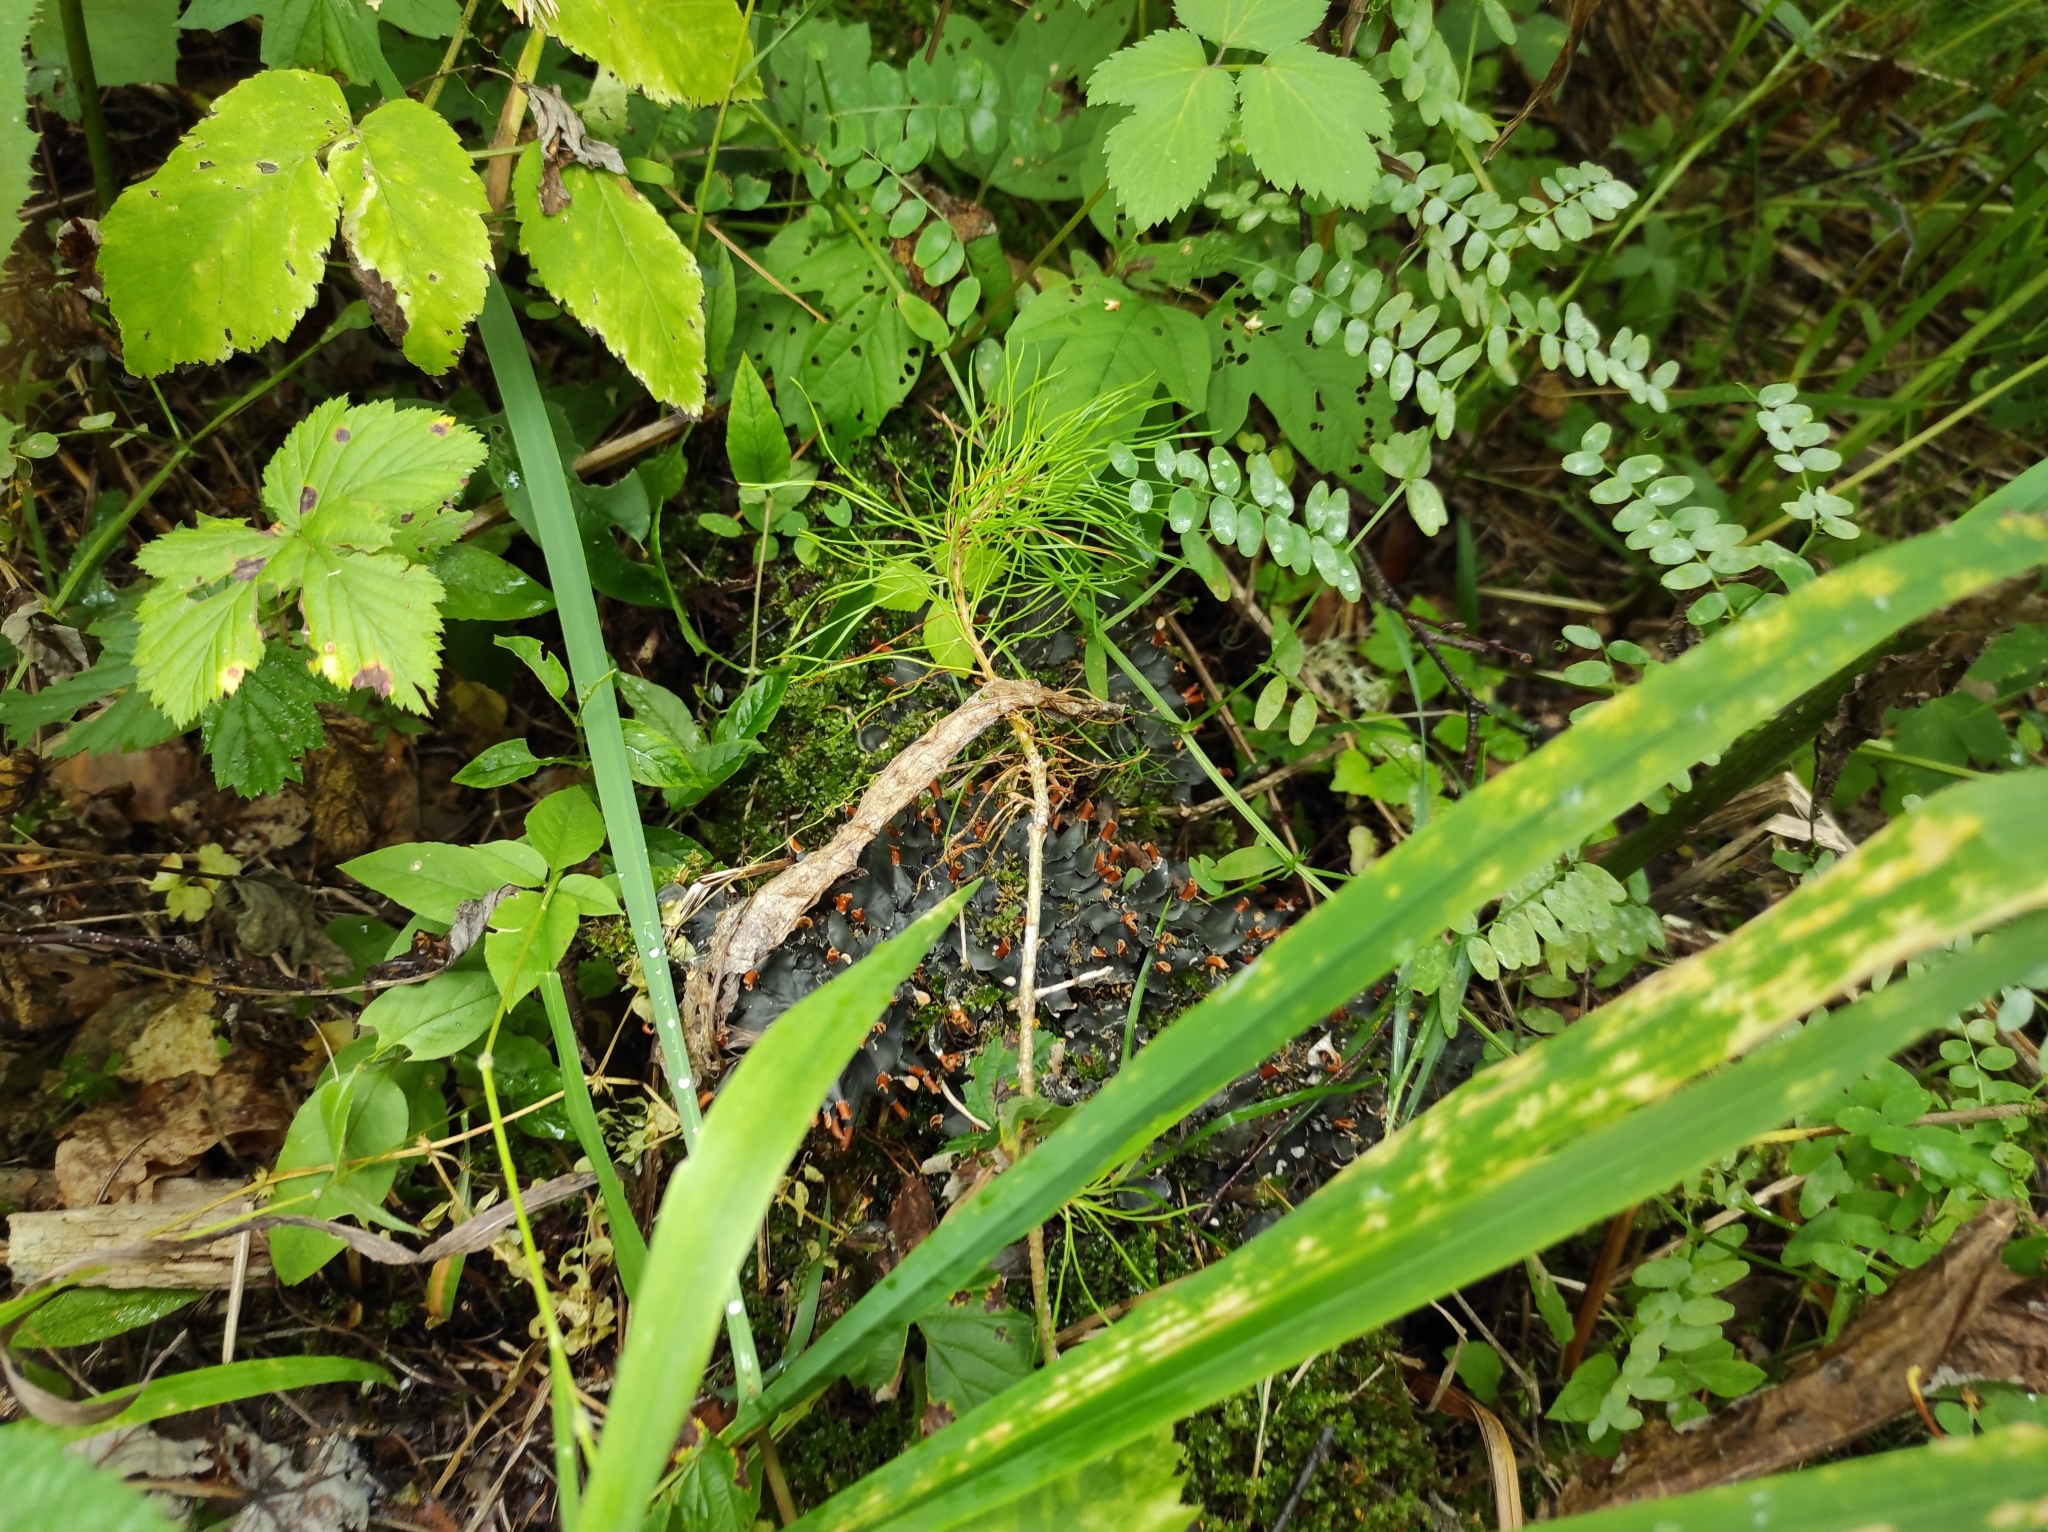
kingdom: Plantae
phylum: Tracheophyta
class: Pinopsida
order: Pinales
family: Pinaceae
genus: Pinus
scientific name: Pinus sylvestris
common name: Scots pine
